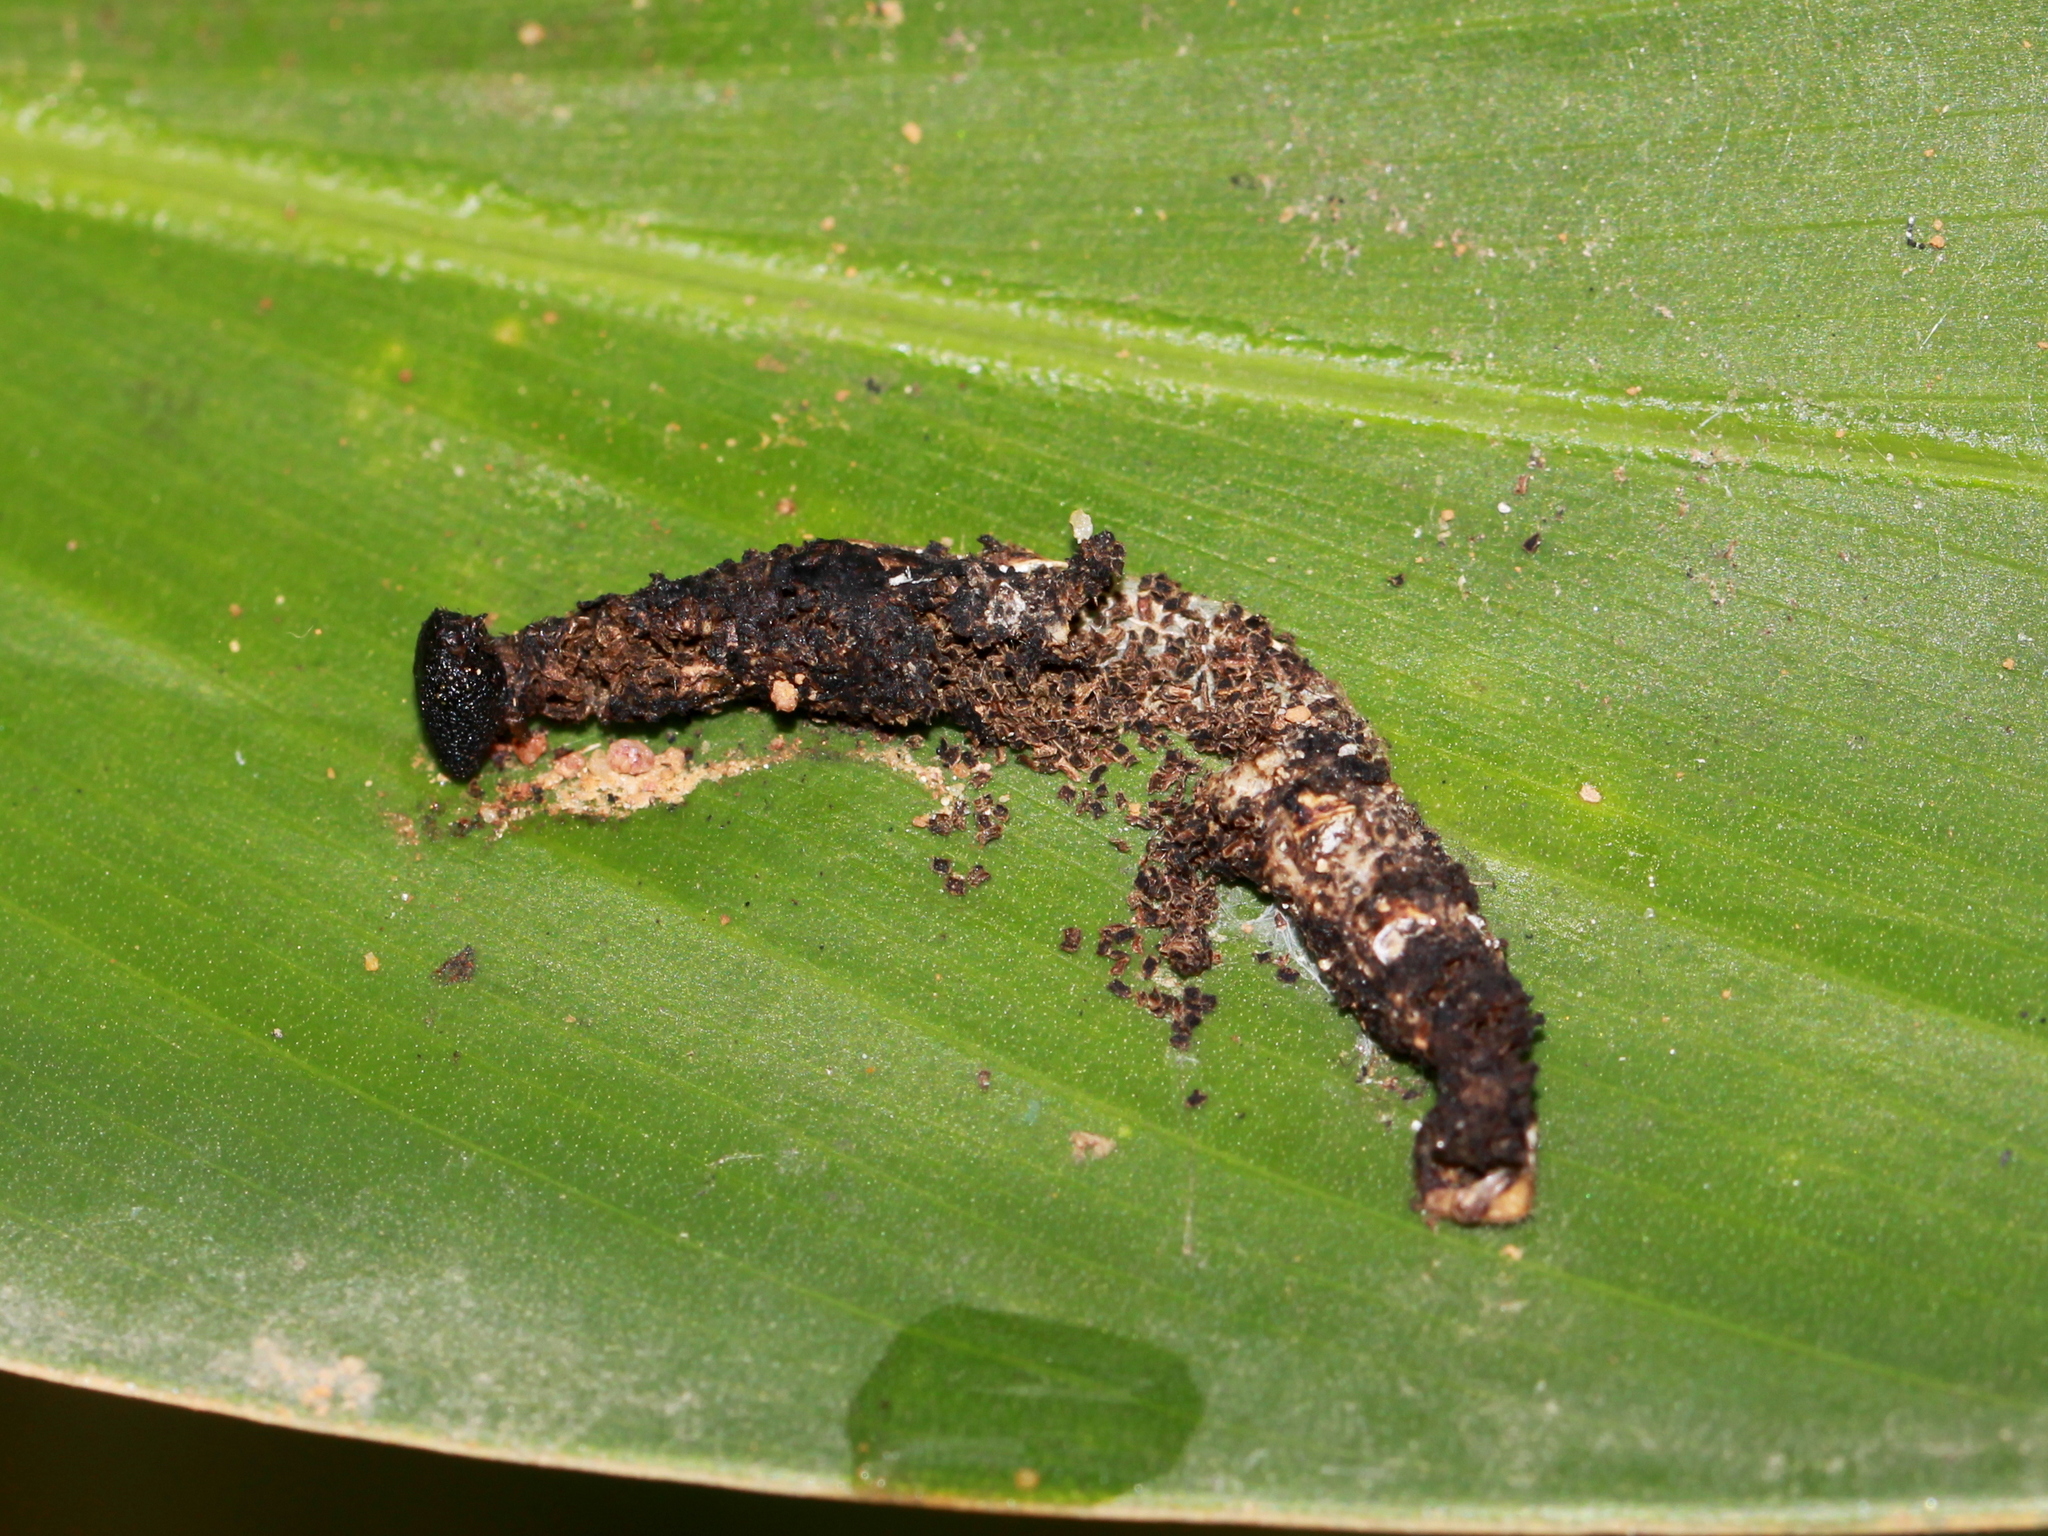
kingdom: Animalia
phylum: Arthropoda
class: Insecta
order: Lepidoptera
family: Hesperiidae
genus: Udaspes
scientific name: Udaspes folus
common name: Grass demon
